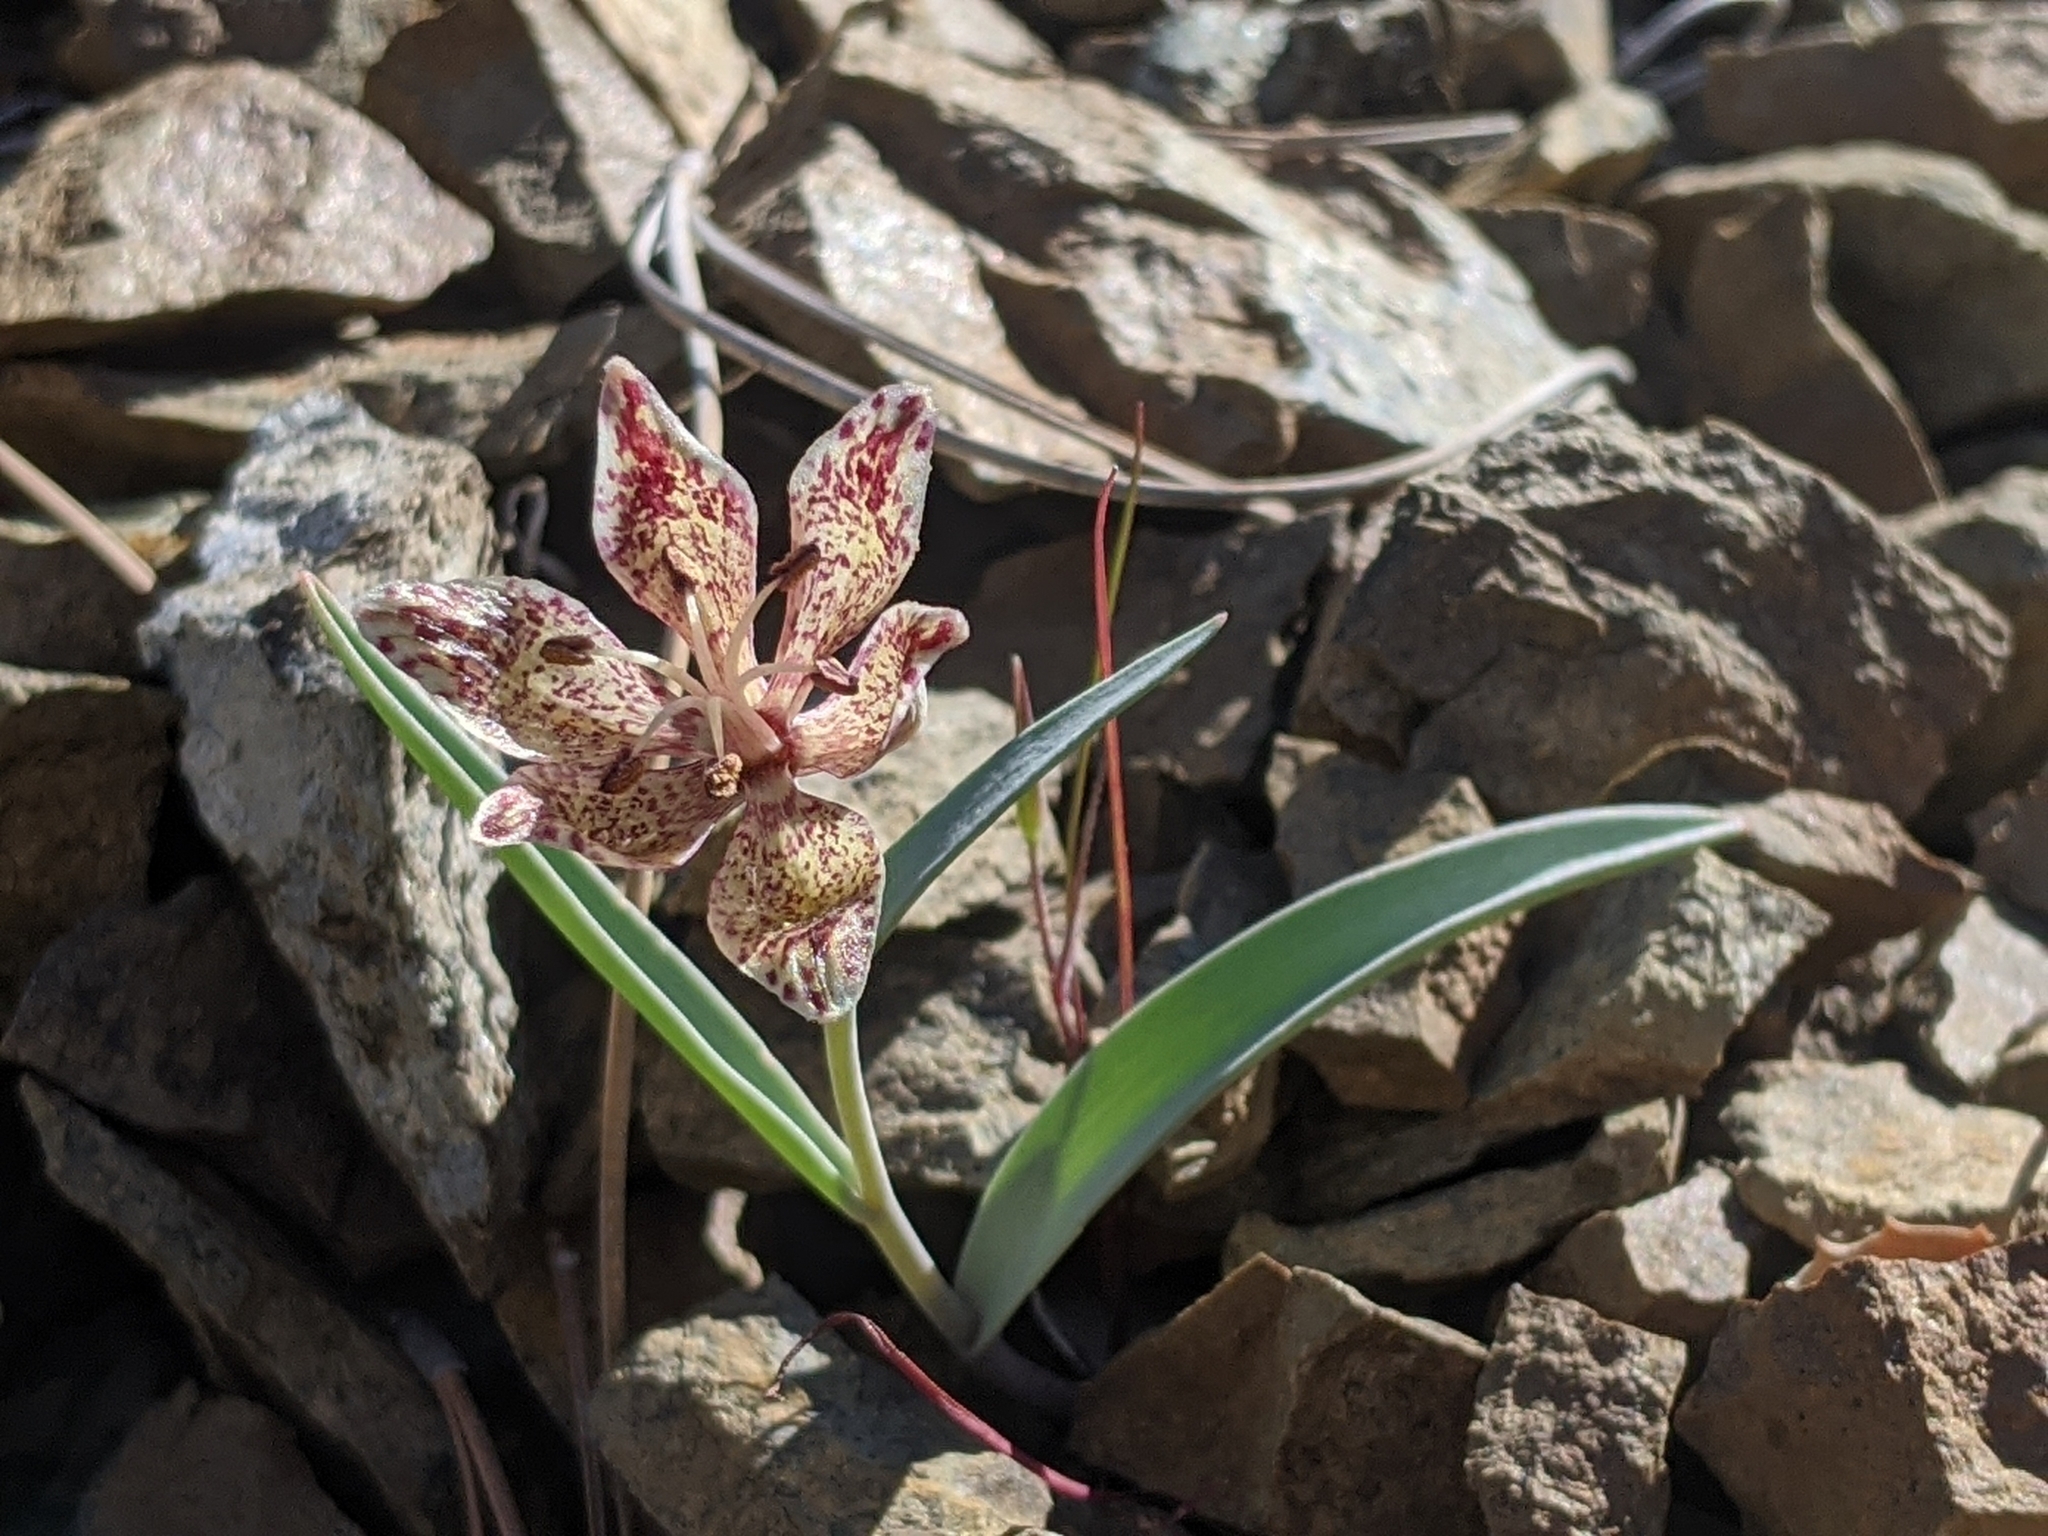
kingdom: Plantae
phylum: Tracheophyta
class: Liliopsida
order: Liliales
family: Liliaceae
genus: Fritillaria
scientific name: Fritillaria falcata
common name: Talus fritillary
